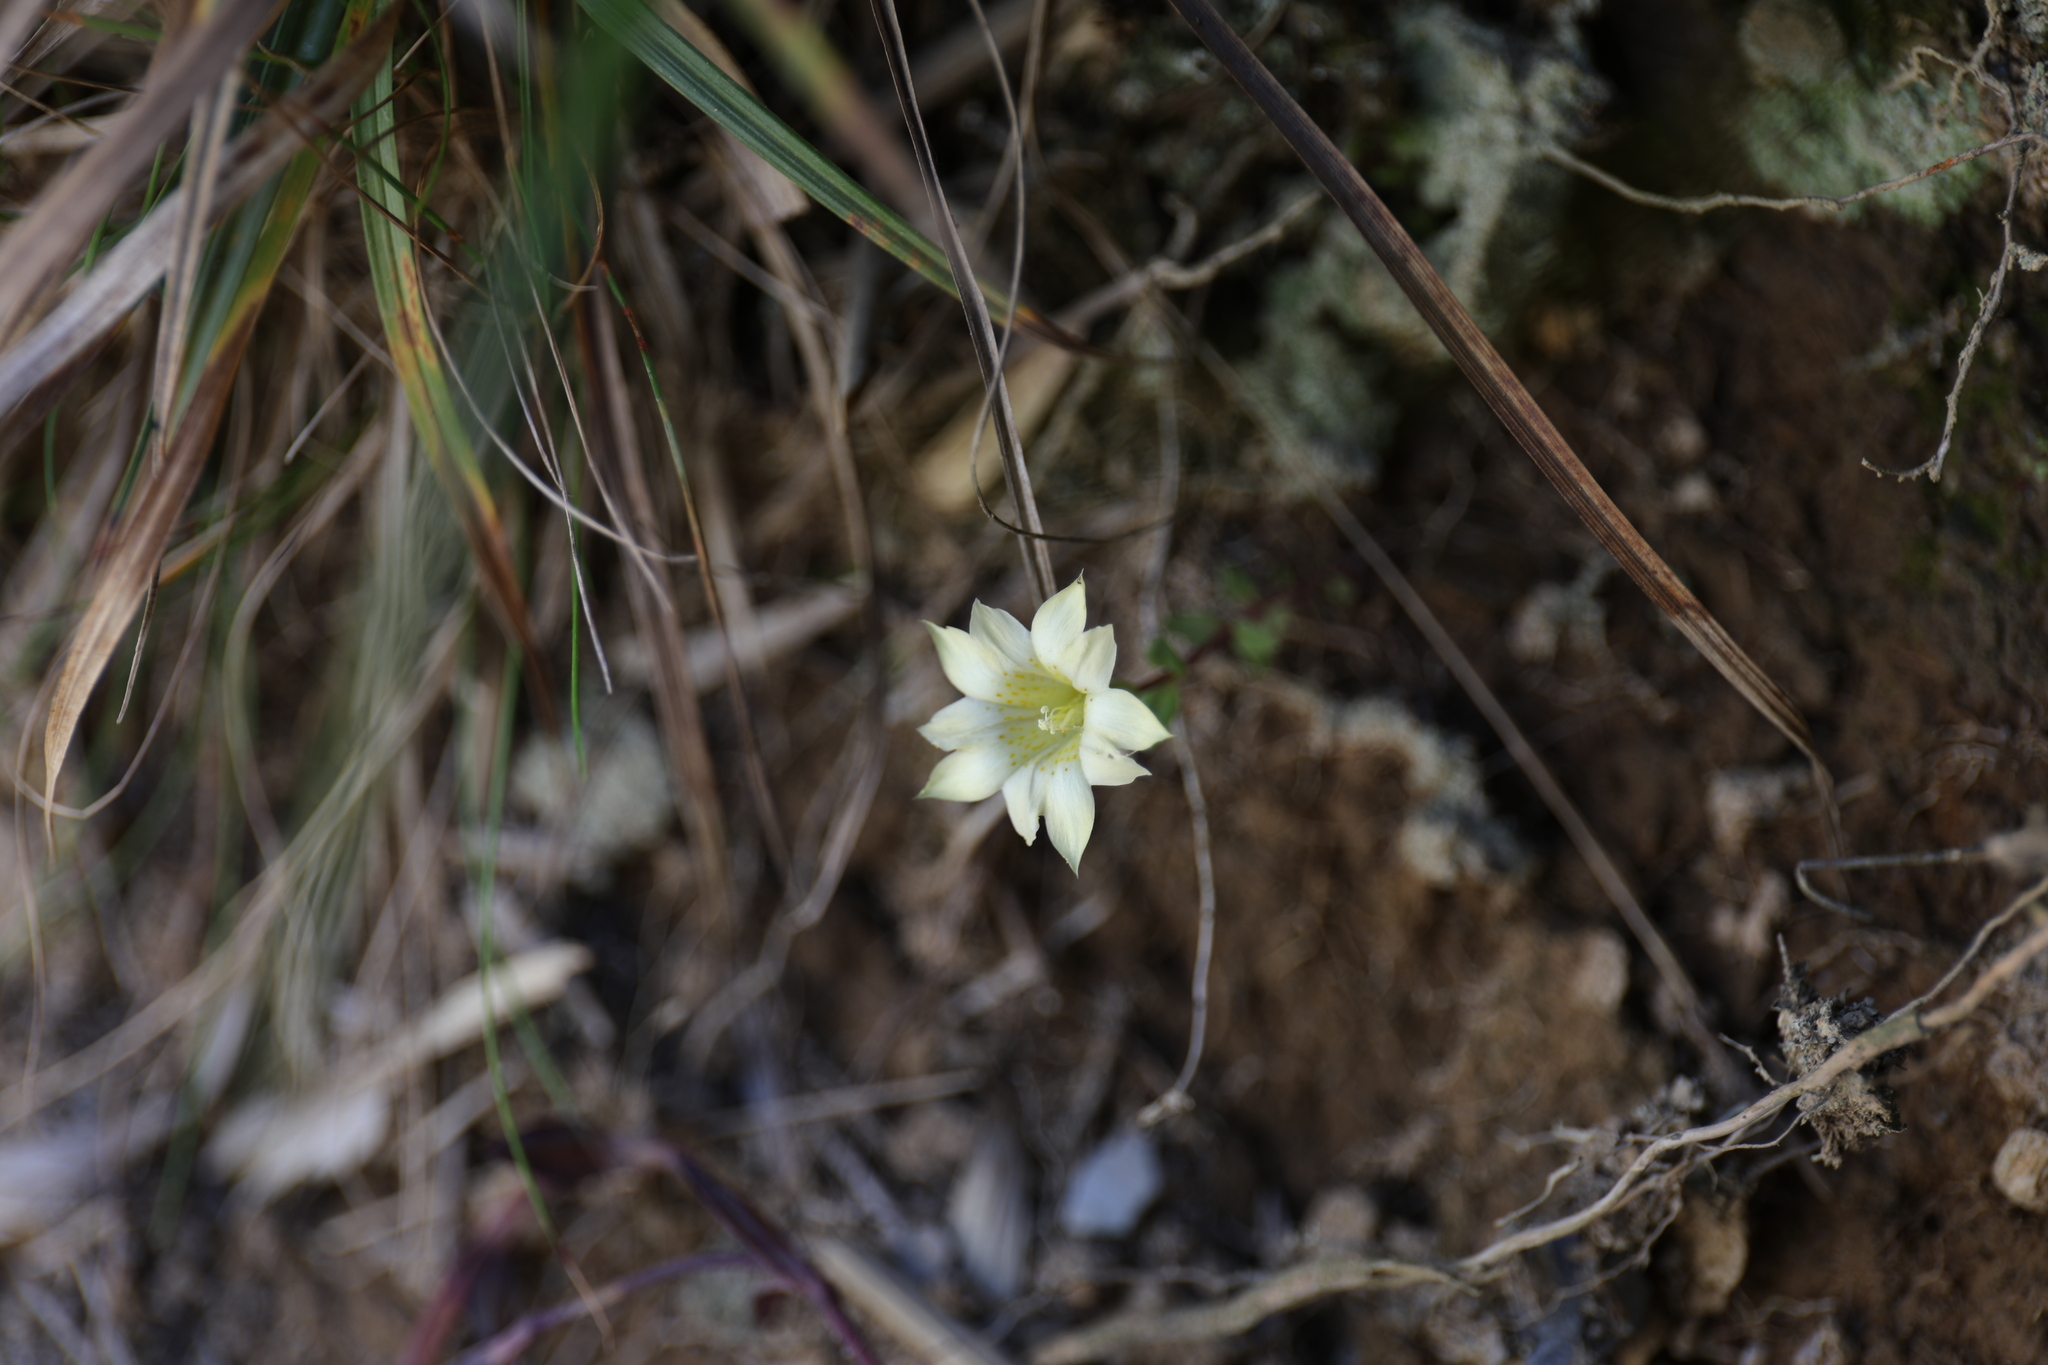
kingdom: Plantae
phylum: Tracheophyta
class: Magnoliopsida
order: Gentianales
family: Gentianaceae
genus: Gentiana
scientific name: Gentiana scabrida
